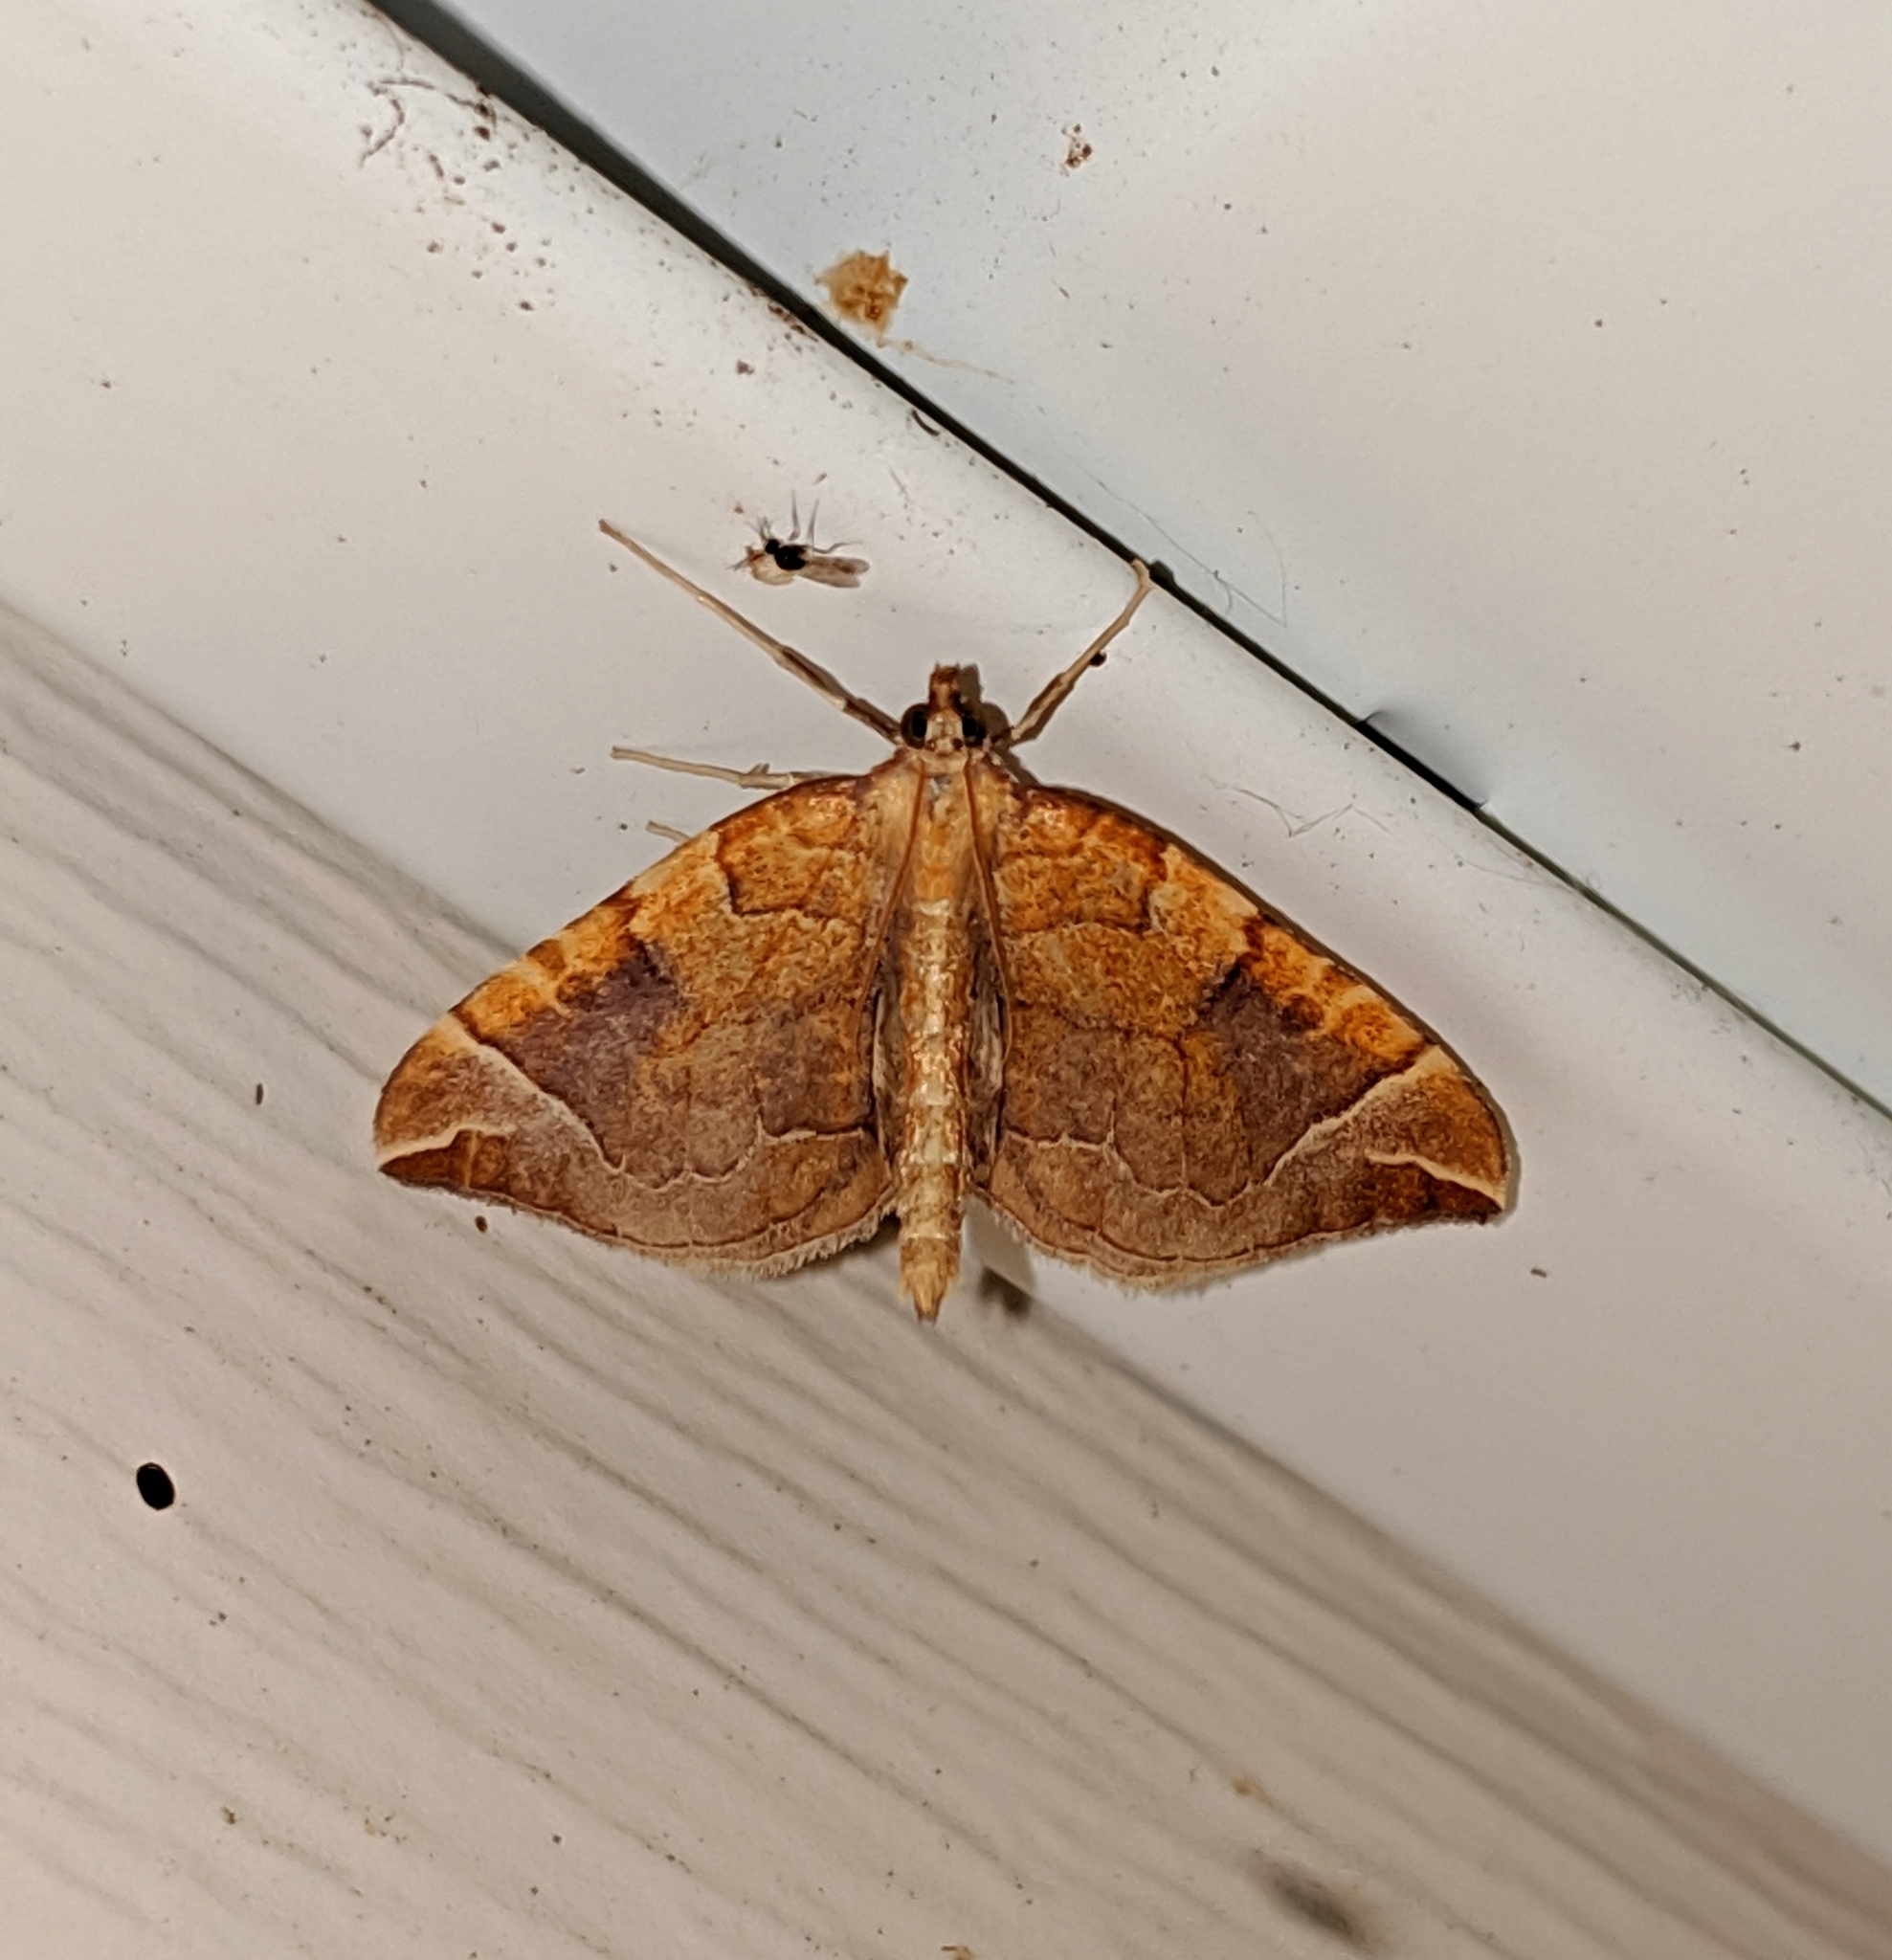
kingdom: Animalia
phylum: Arthropoda
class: Insecta
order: Lepidoptera
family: Geometridae
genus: Eulithis
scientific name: Eulithis testata
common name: Chevron
